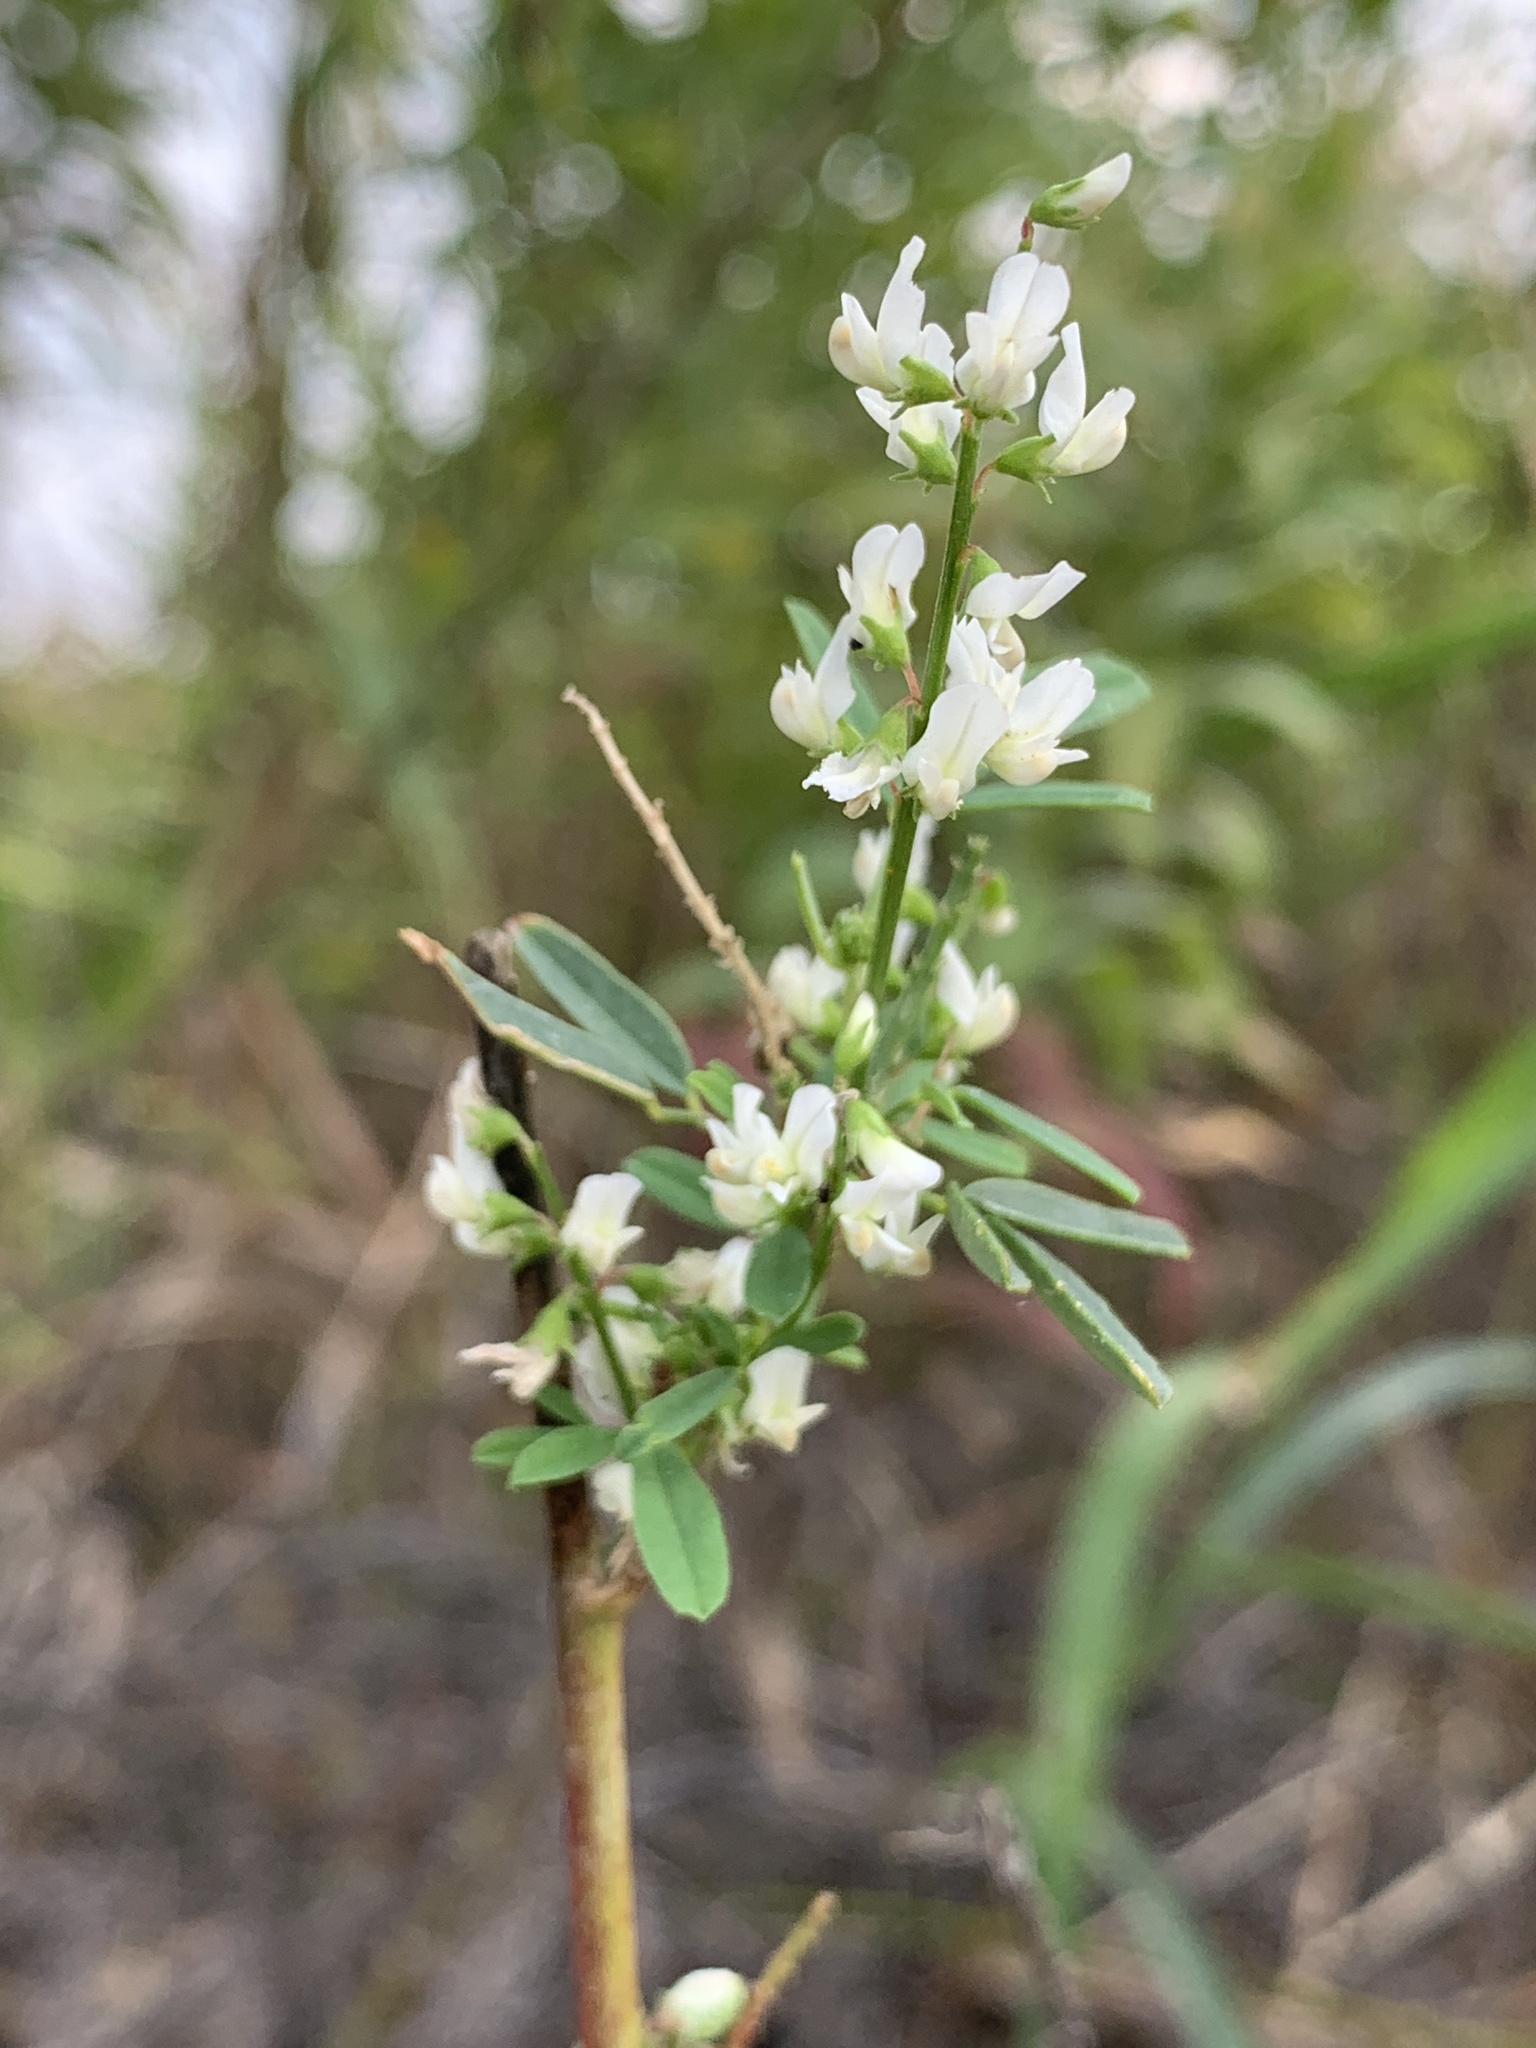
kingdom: Plantae
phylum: Tracheophyta
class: Magnoliopsida
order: Fabales
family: Fabaceae
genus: Melilotus
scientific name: Melilotus albus
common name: White melilot
